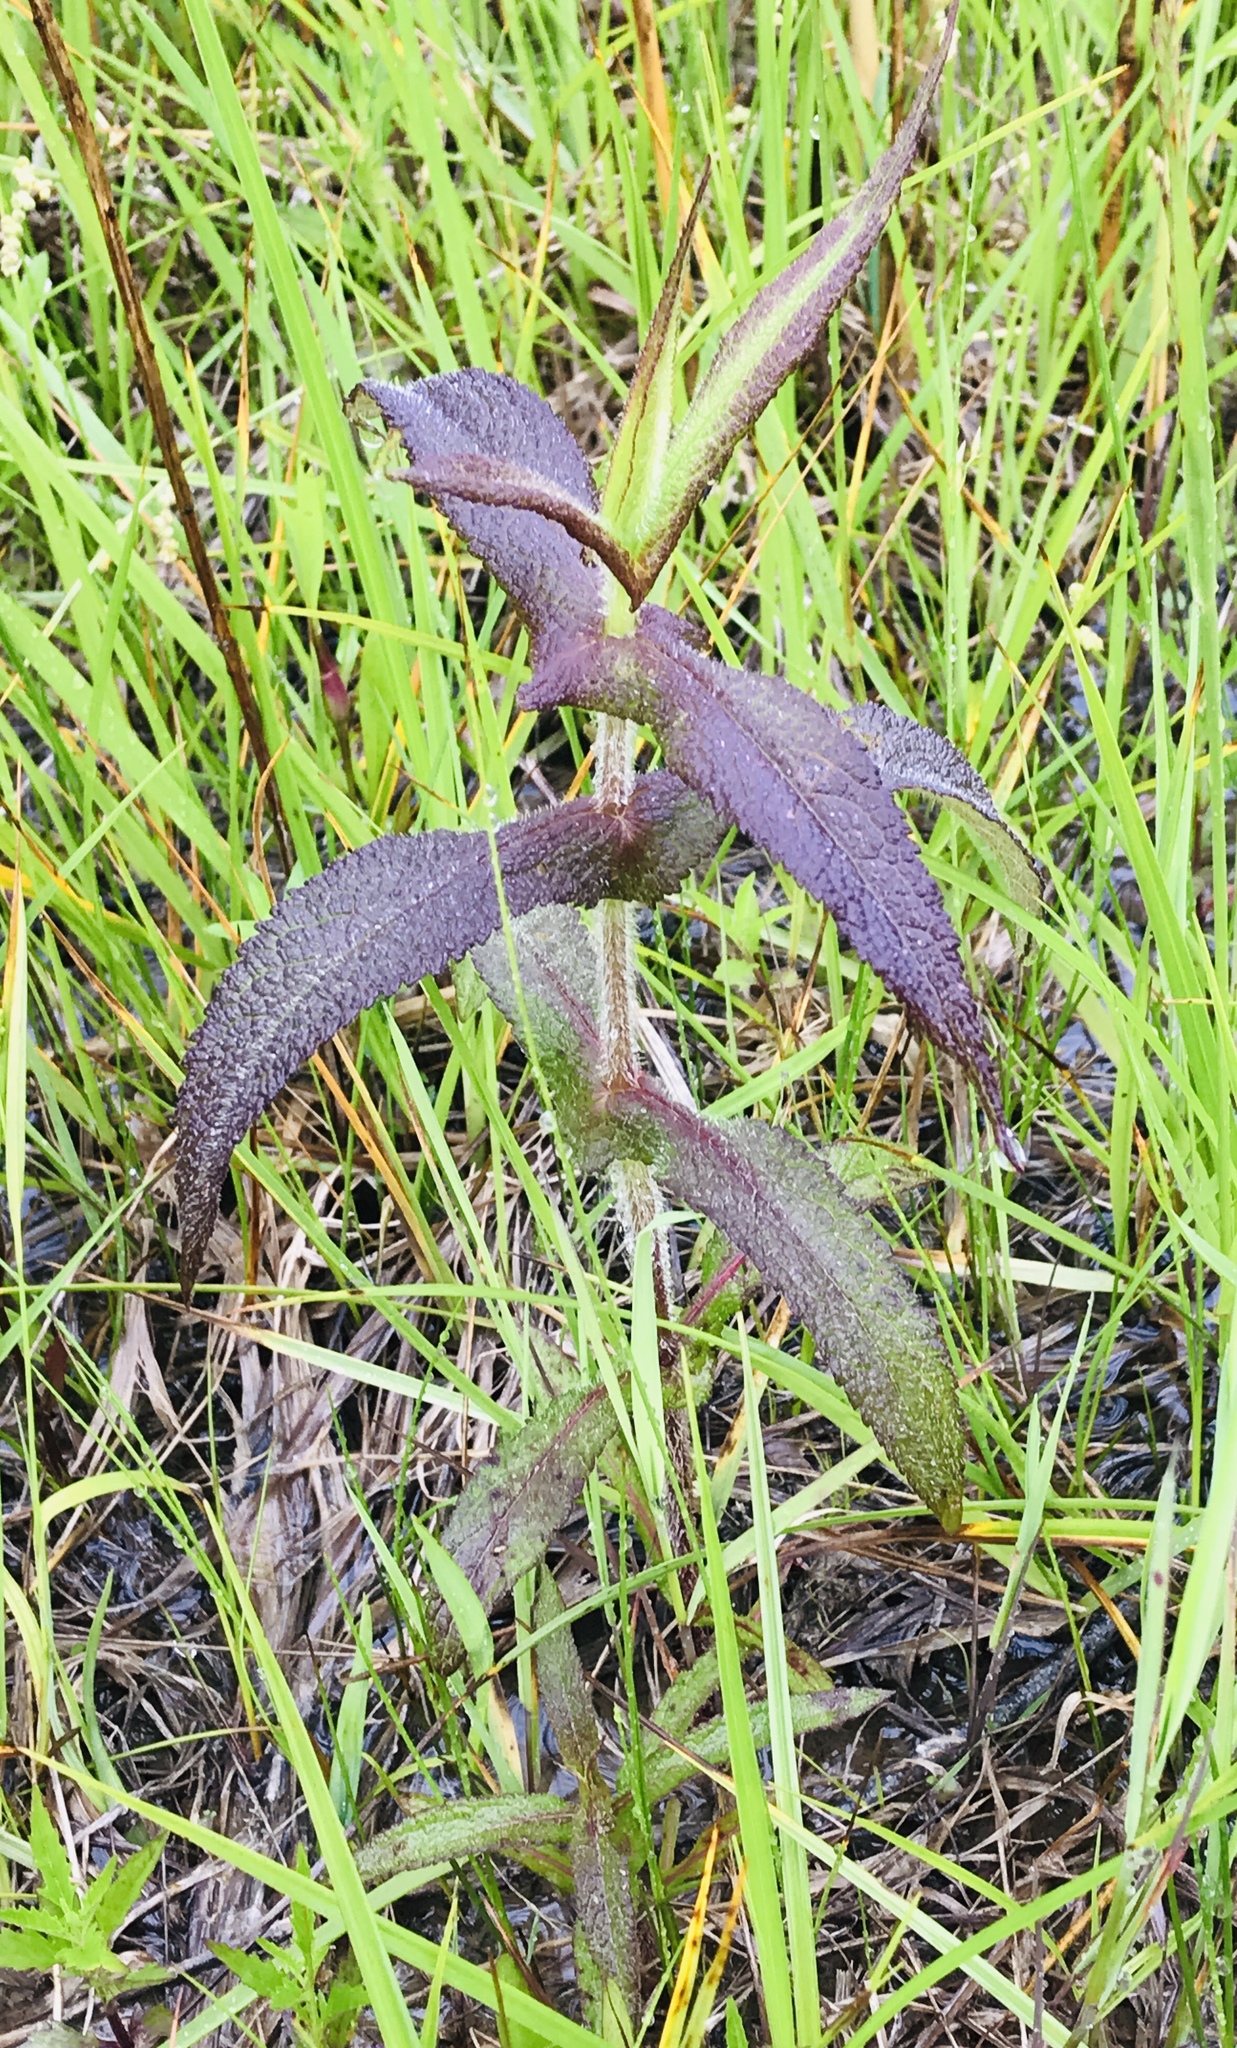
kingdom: Plantae
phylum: Tracheophyta
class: Magnoliopsida
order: Asterales
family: Asteraceae
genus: Eupatorium
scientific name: Eupatorium perfoliatum
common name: Boneset
